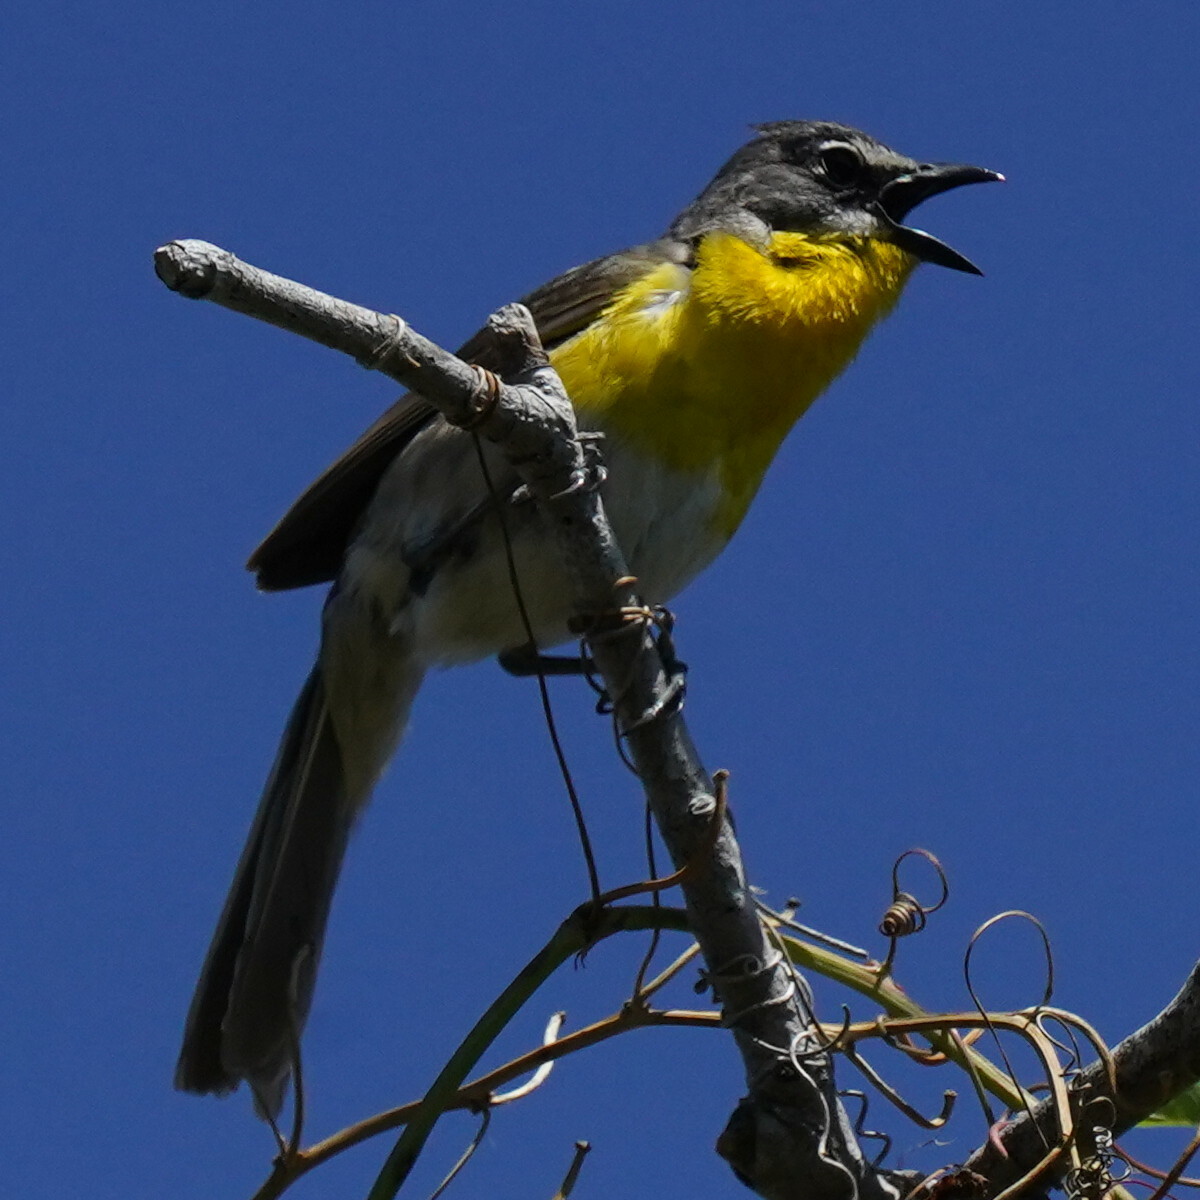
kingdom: Animalia
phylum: Chordata
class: Aves
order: Passeriformes
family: Parulidae
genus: Icteria
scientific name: Icteria virens
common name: Yellow-breasted chat
